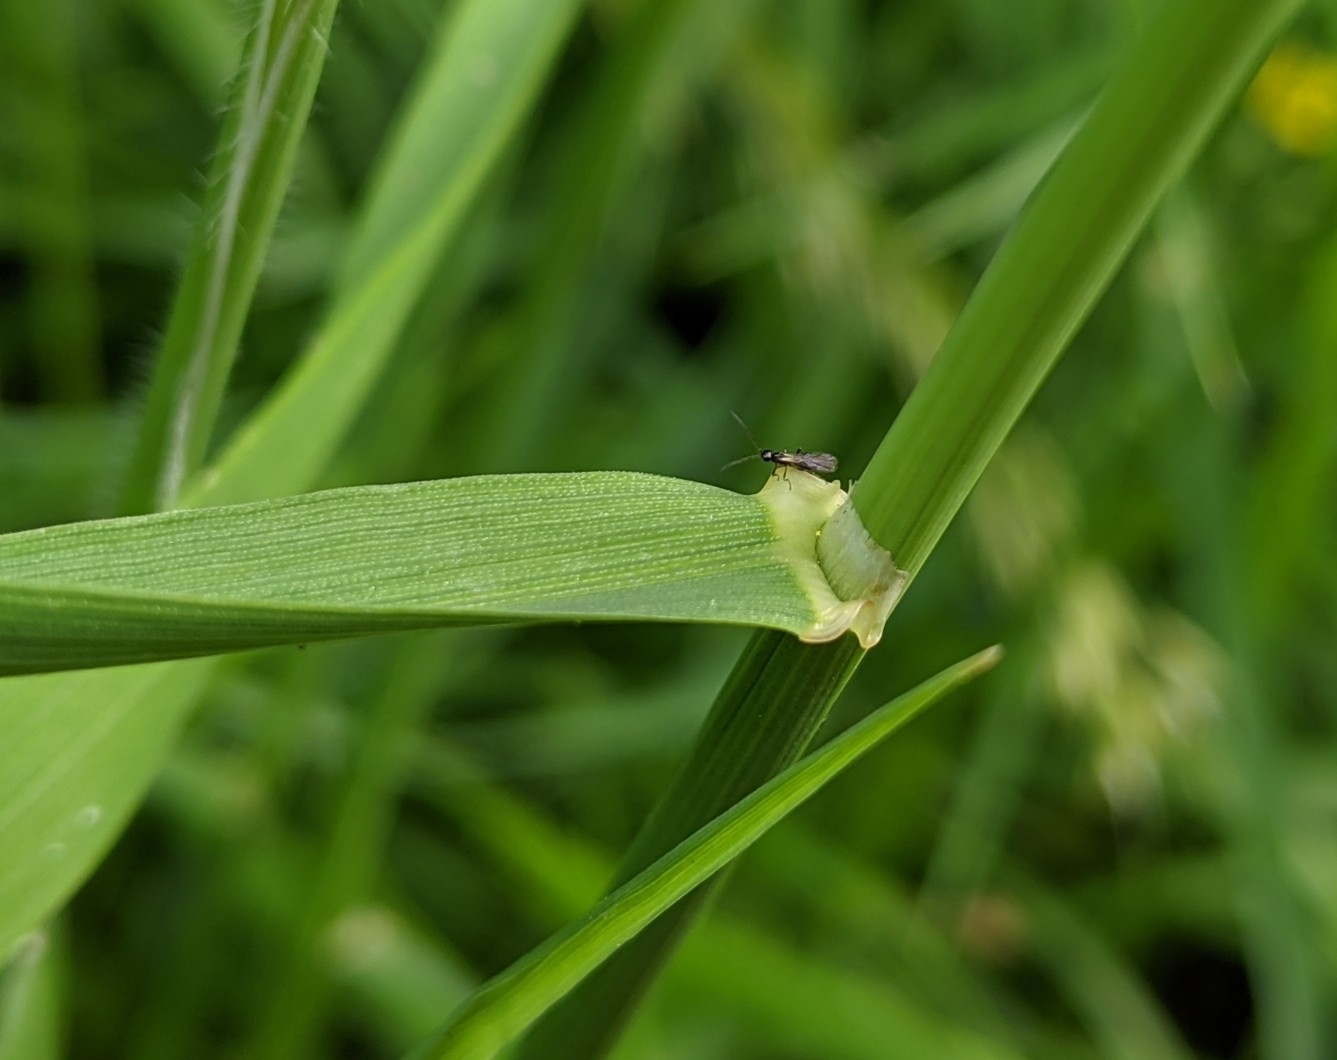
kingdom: Plantae
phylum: Tracheophyta
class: Liliopsida
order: Poales
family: Poaceae
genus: Arrhenatherum
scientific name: Arrhenatherum elatius
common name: Tall oatgrass
